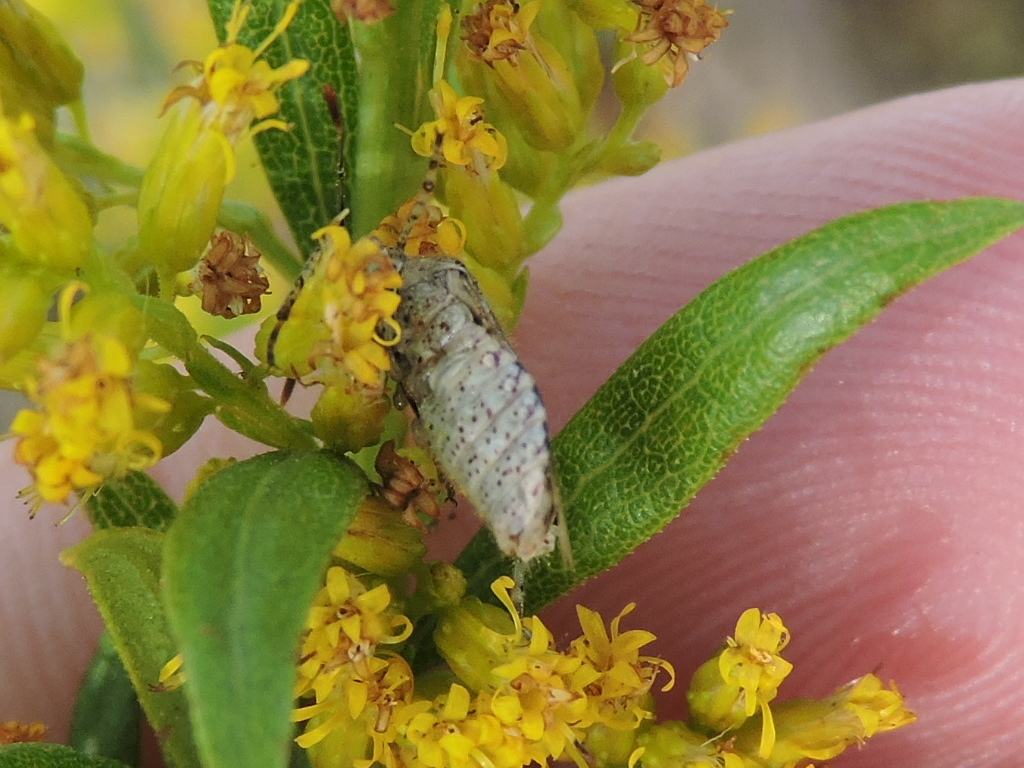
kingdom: Animalia
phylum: Arthropoda
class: Insecta
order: Hemiptera
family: Rhopalidae
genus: Niesthrea
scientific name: Niesthrea louisianica
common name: Scentless plant bug
